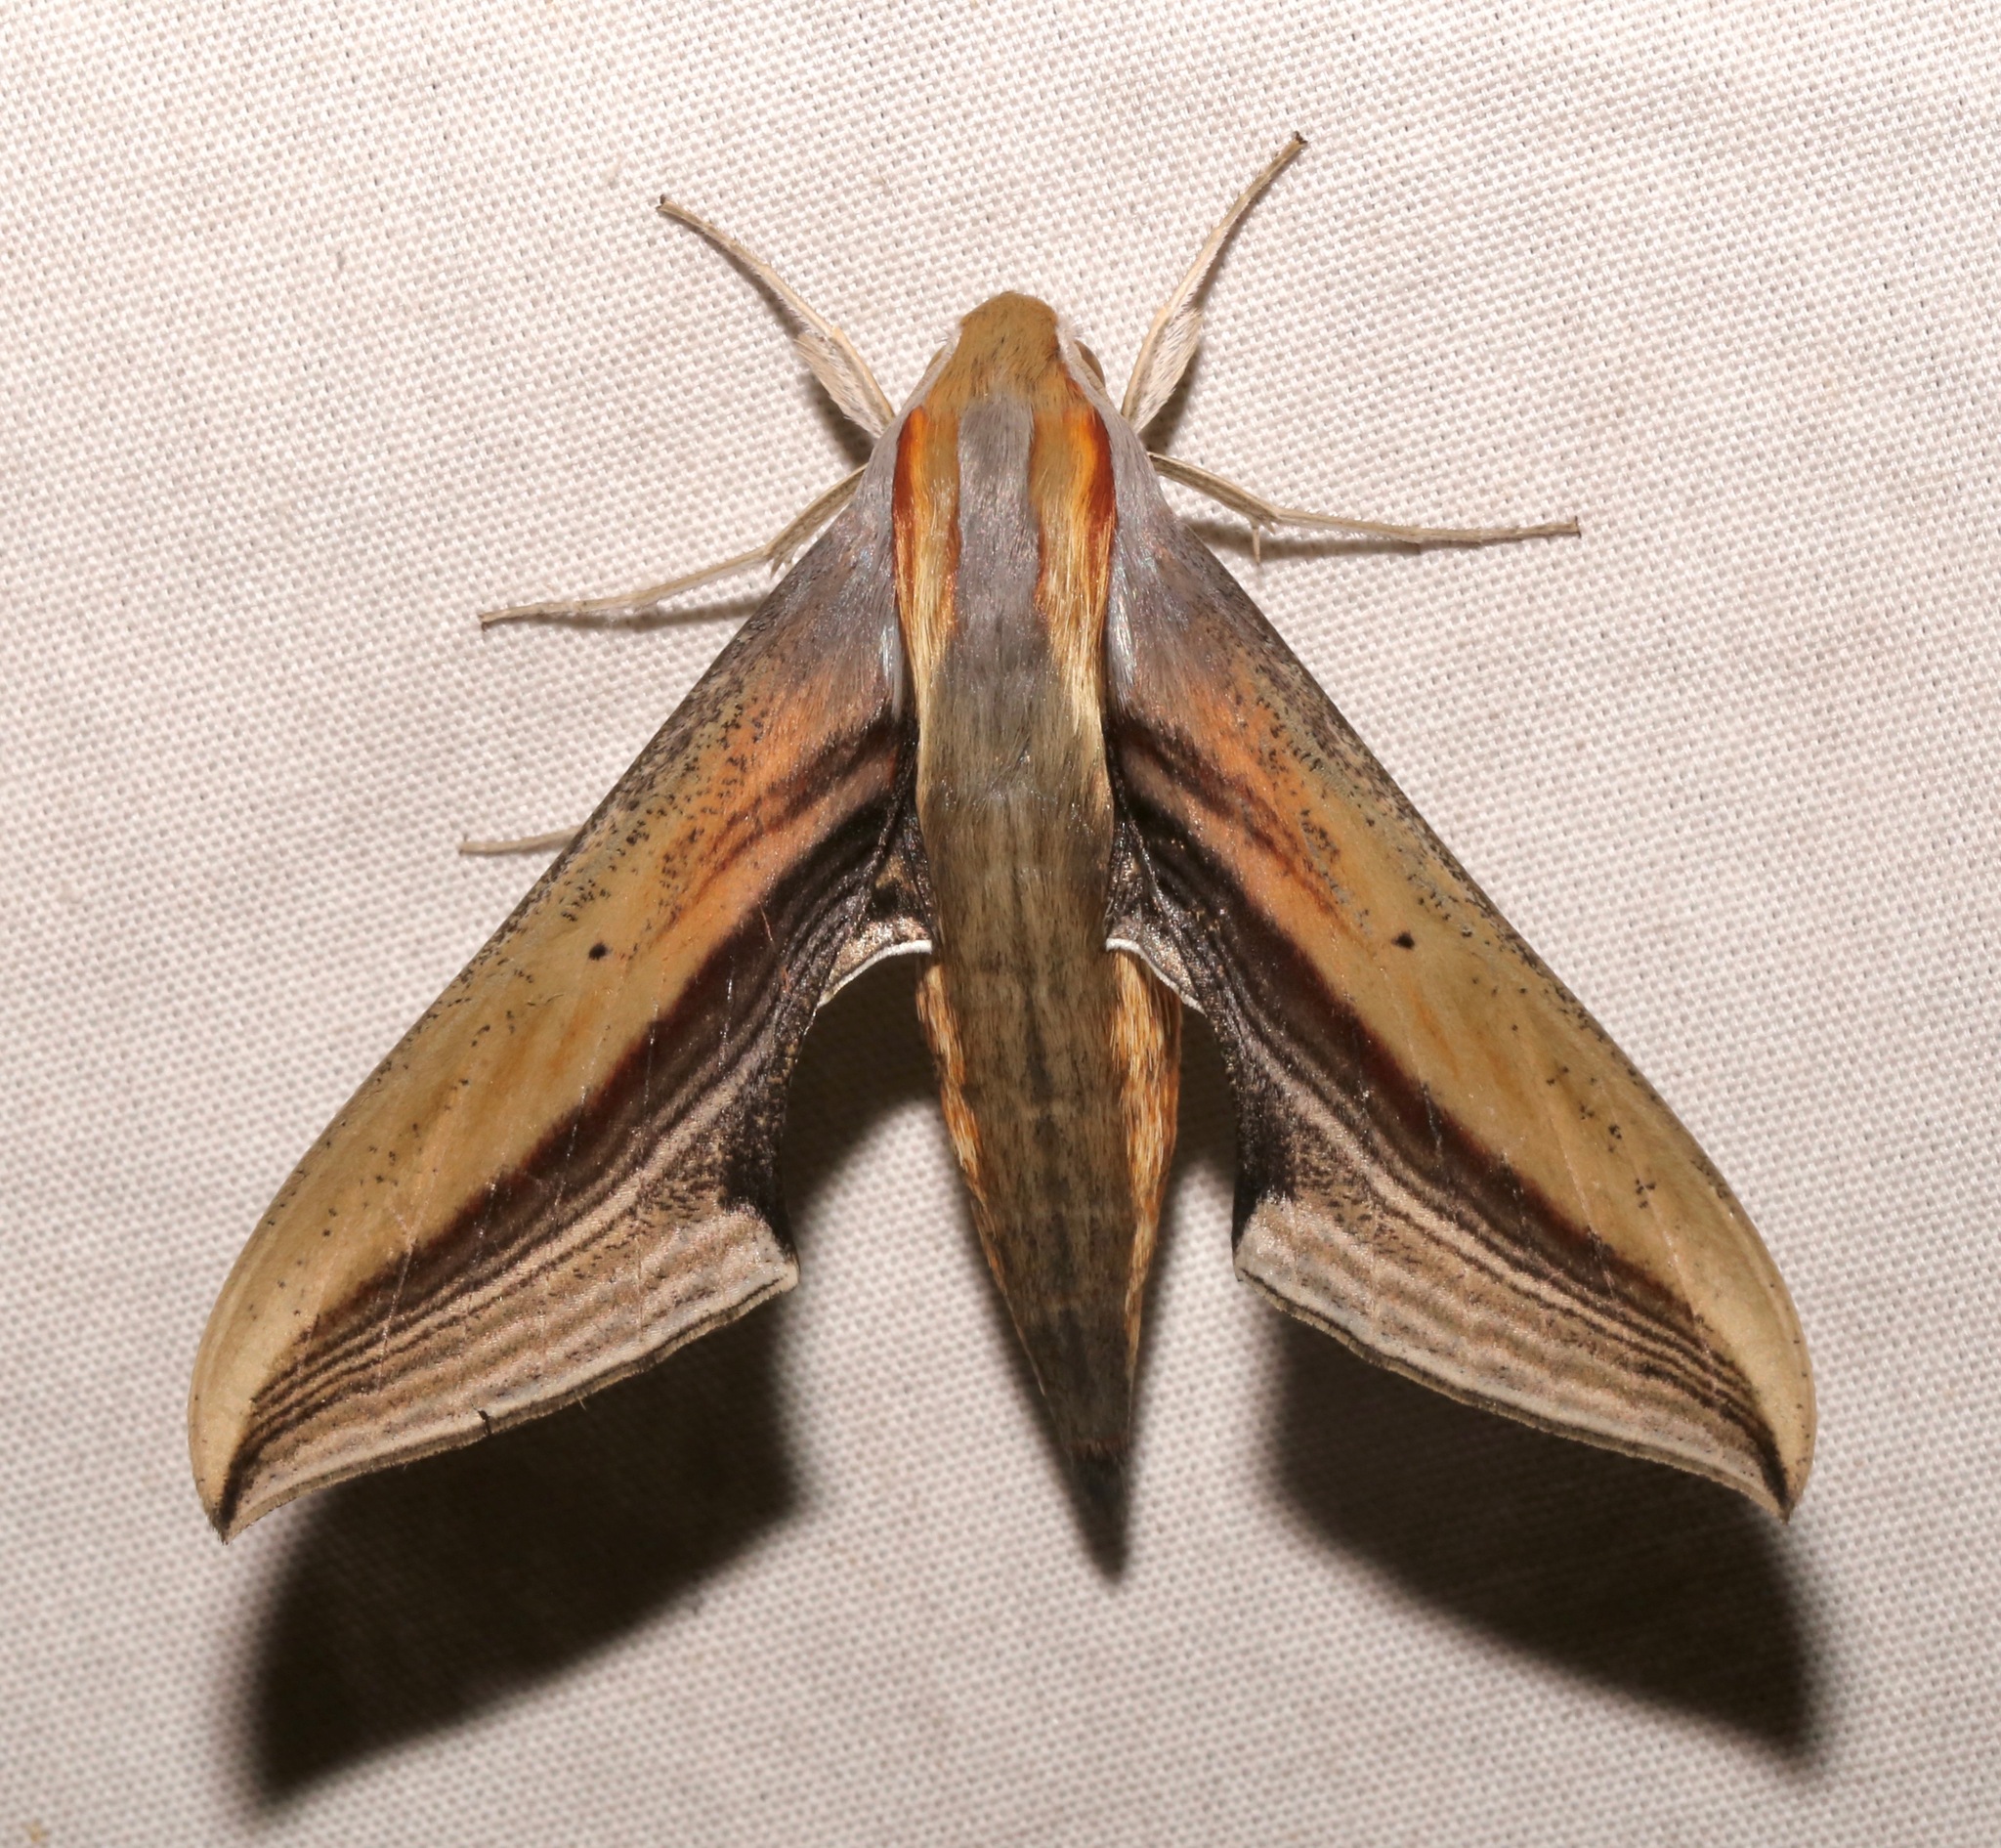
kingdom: Animalia
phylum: Arthropoda
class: Insecta
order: Lepidoptera
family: Sphingidae
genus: Xylophanes
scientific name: Xylophanes falco
